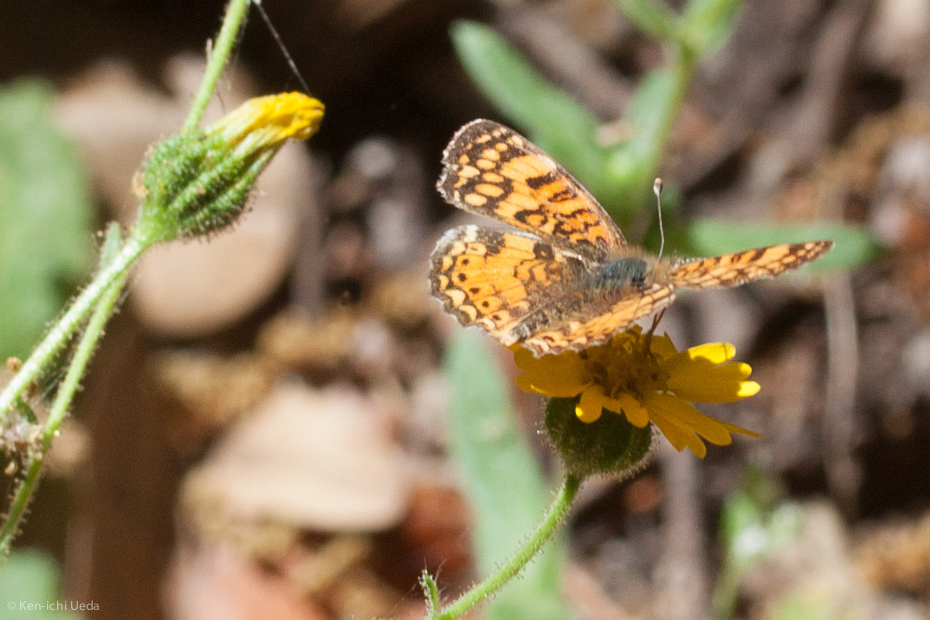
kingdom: Animalia
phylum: Arthropoda
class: Insecta
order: Lepidoptera
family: Nymphalidae
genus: Eresia
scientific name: Eresia aveyrona
